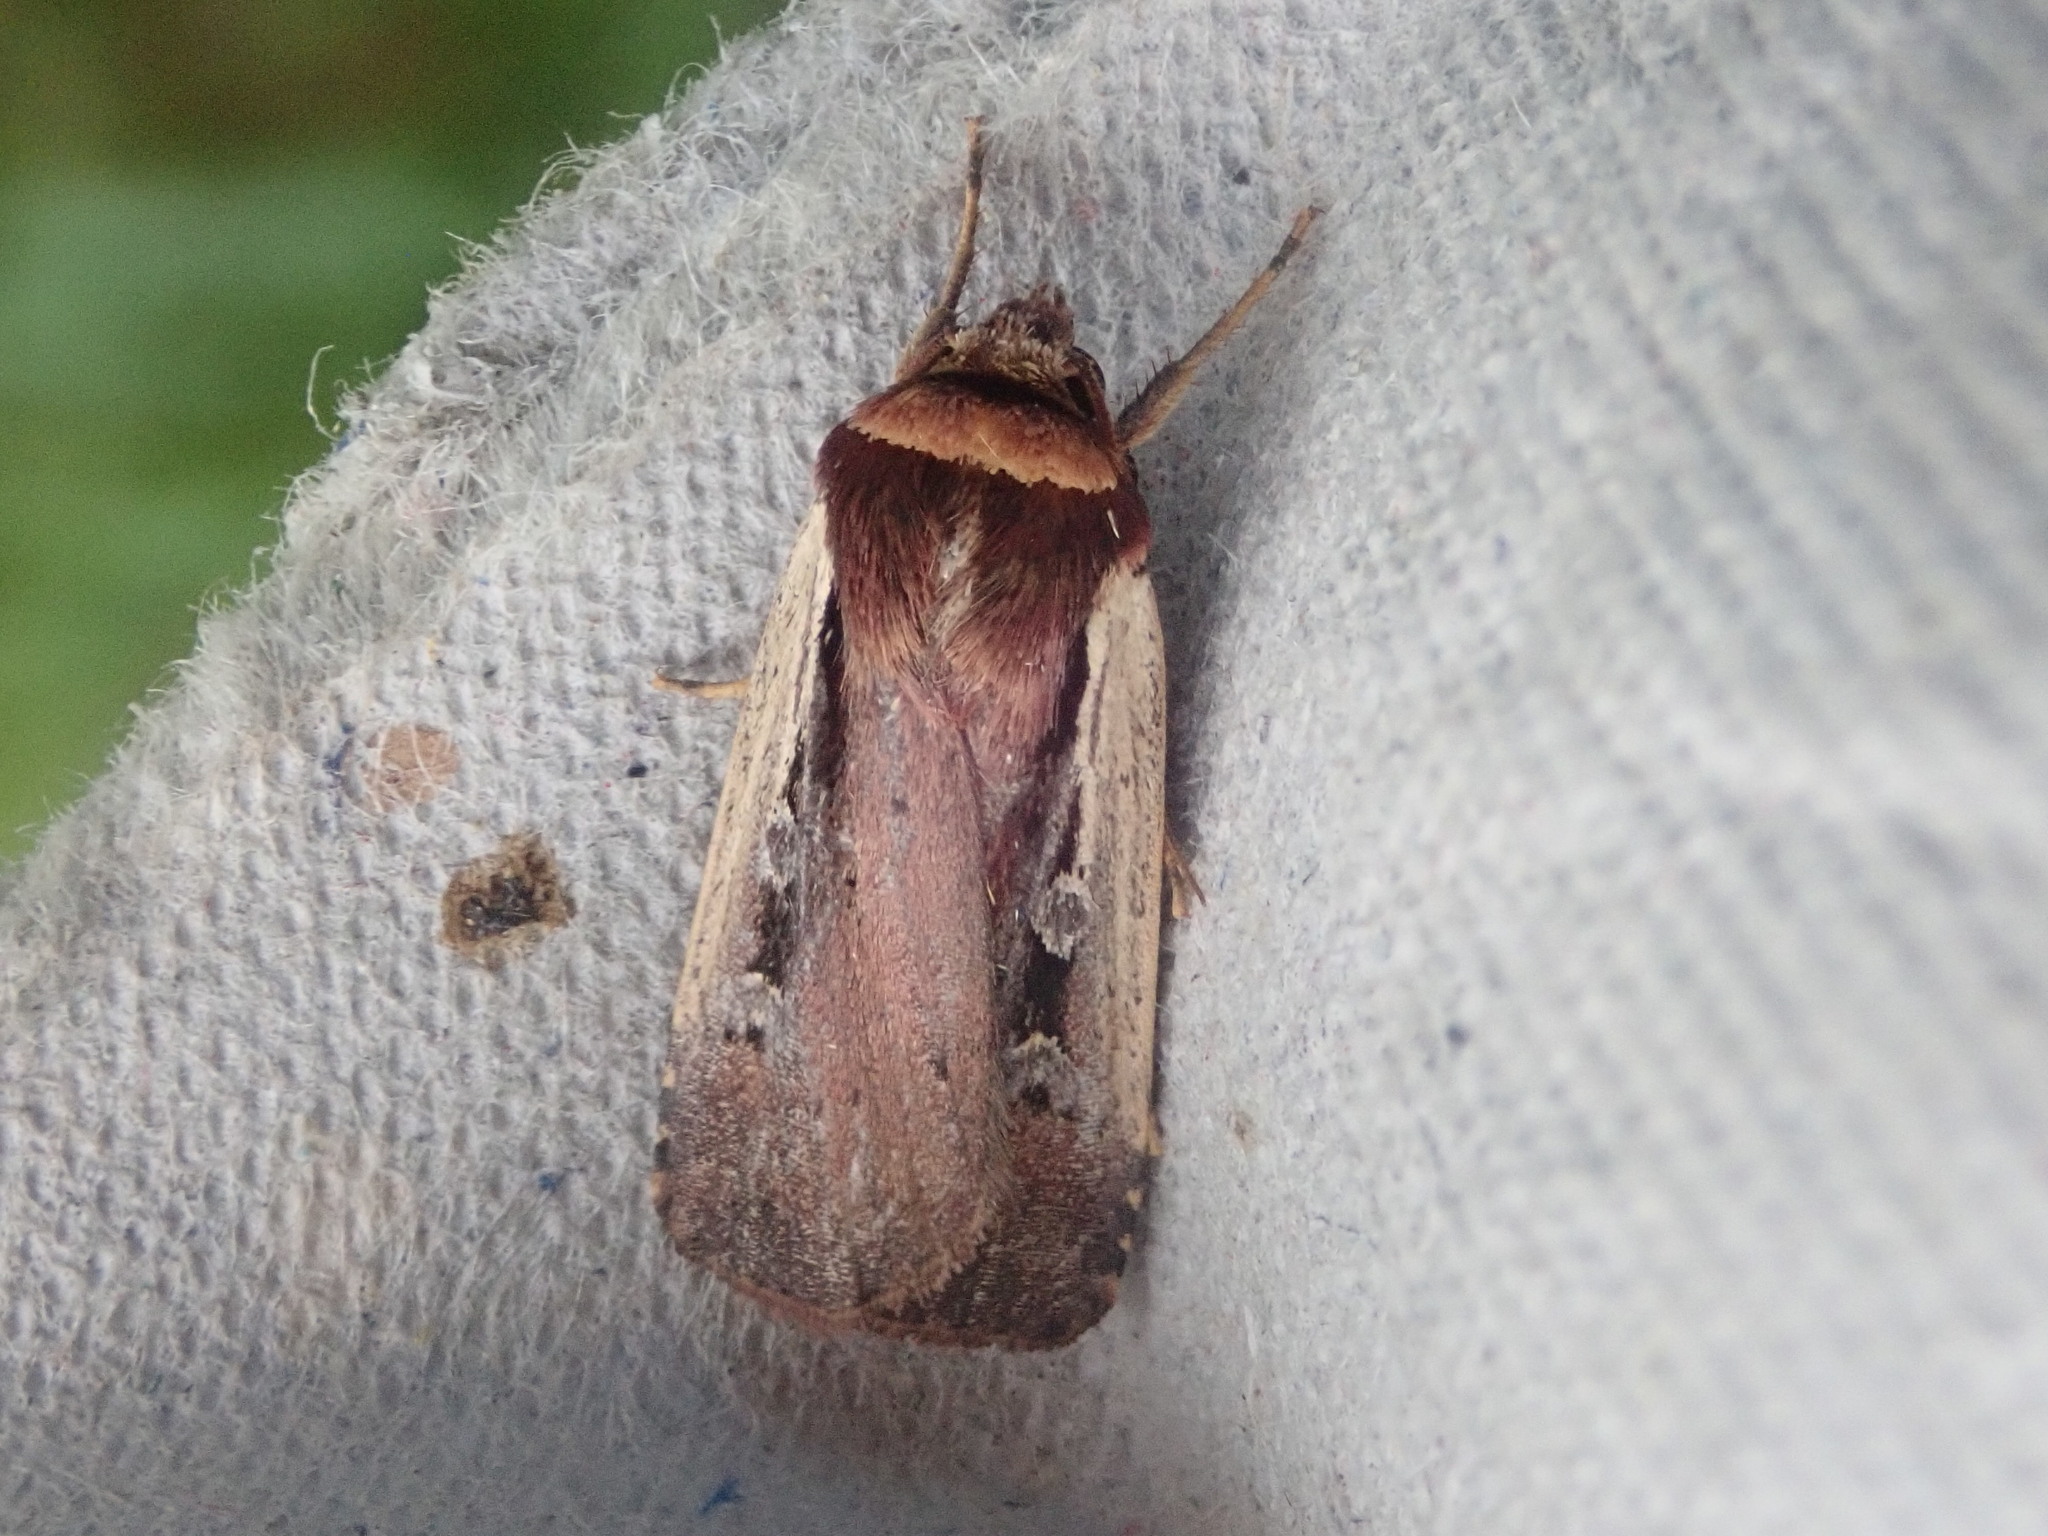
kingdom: Animalia
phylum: Arthropoda
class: Insecta
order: Lepidoptera
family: Noctuidae
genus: Ochropleura
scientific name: Ochropleura implecta
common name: Flame-shouldered dart
